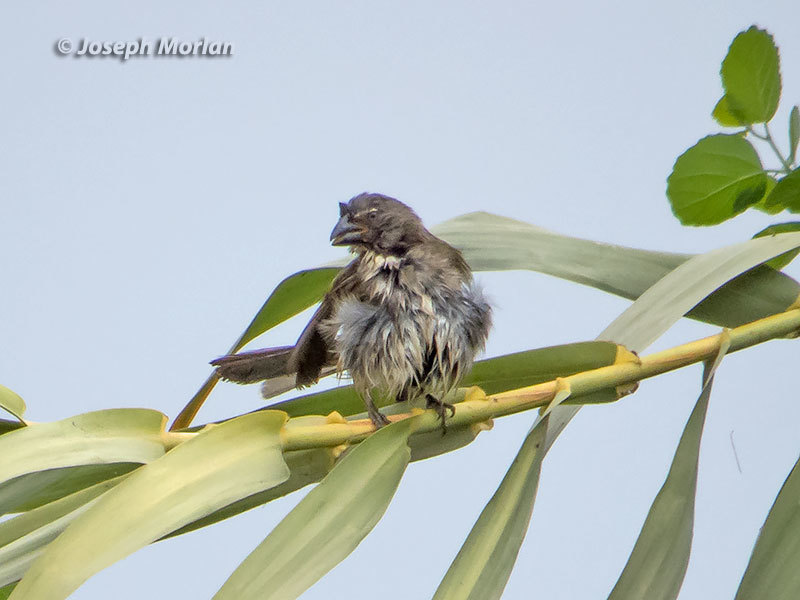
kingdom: Animalia
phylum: Chordata
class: Aves
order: Passeriformes
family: Thraupidae
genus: Saltator
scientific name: Saltator striatipectus
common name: Streaked saltator
